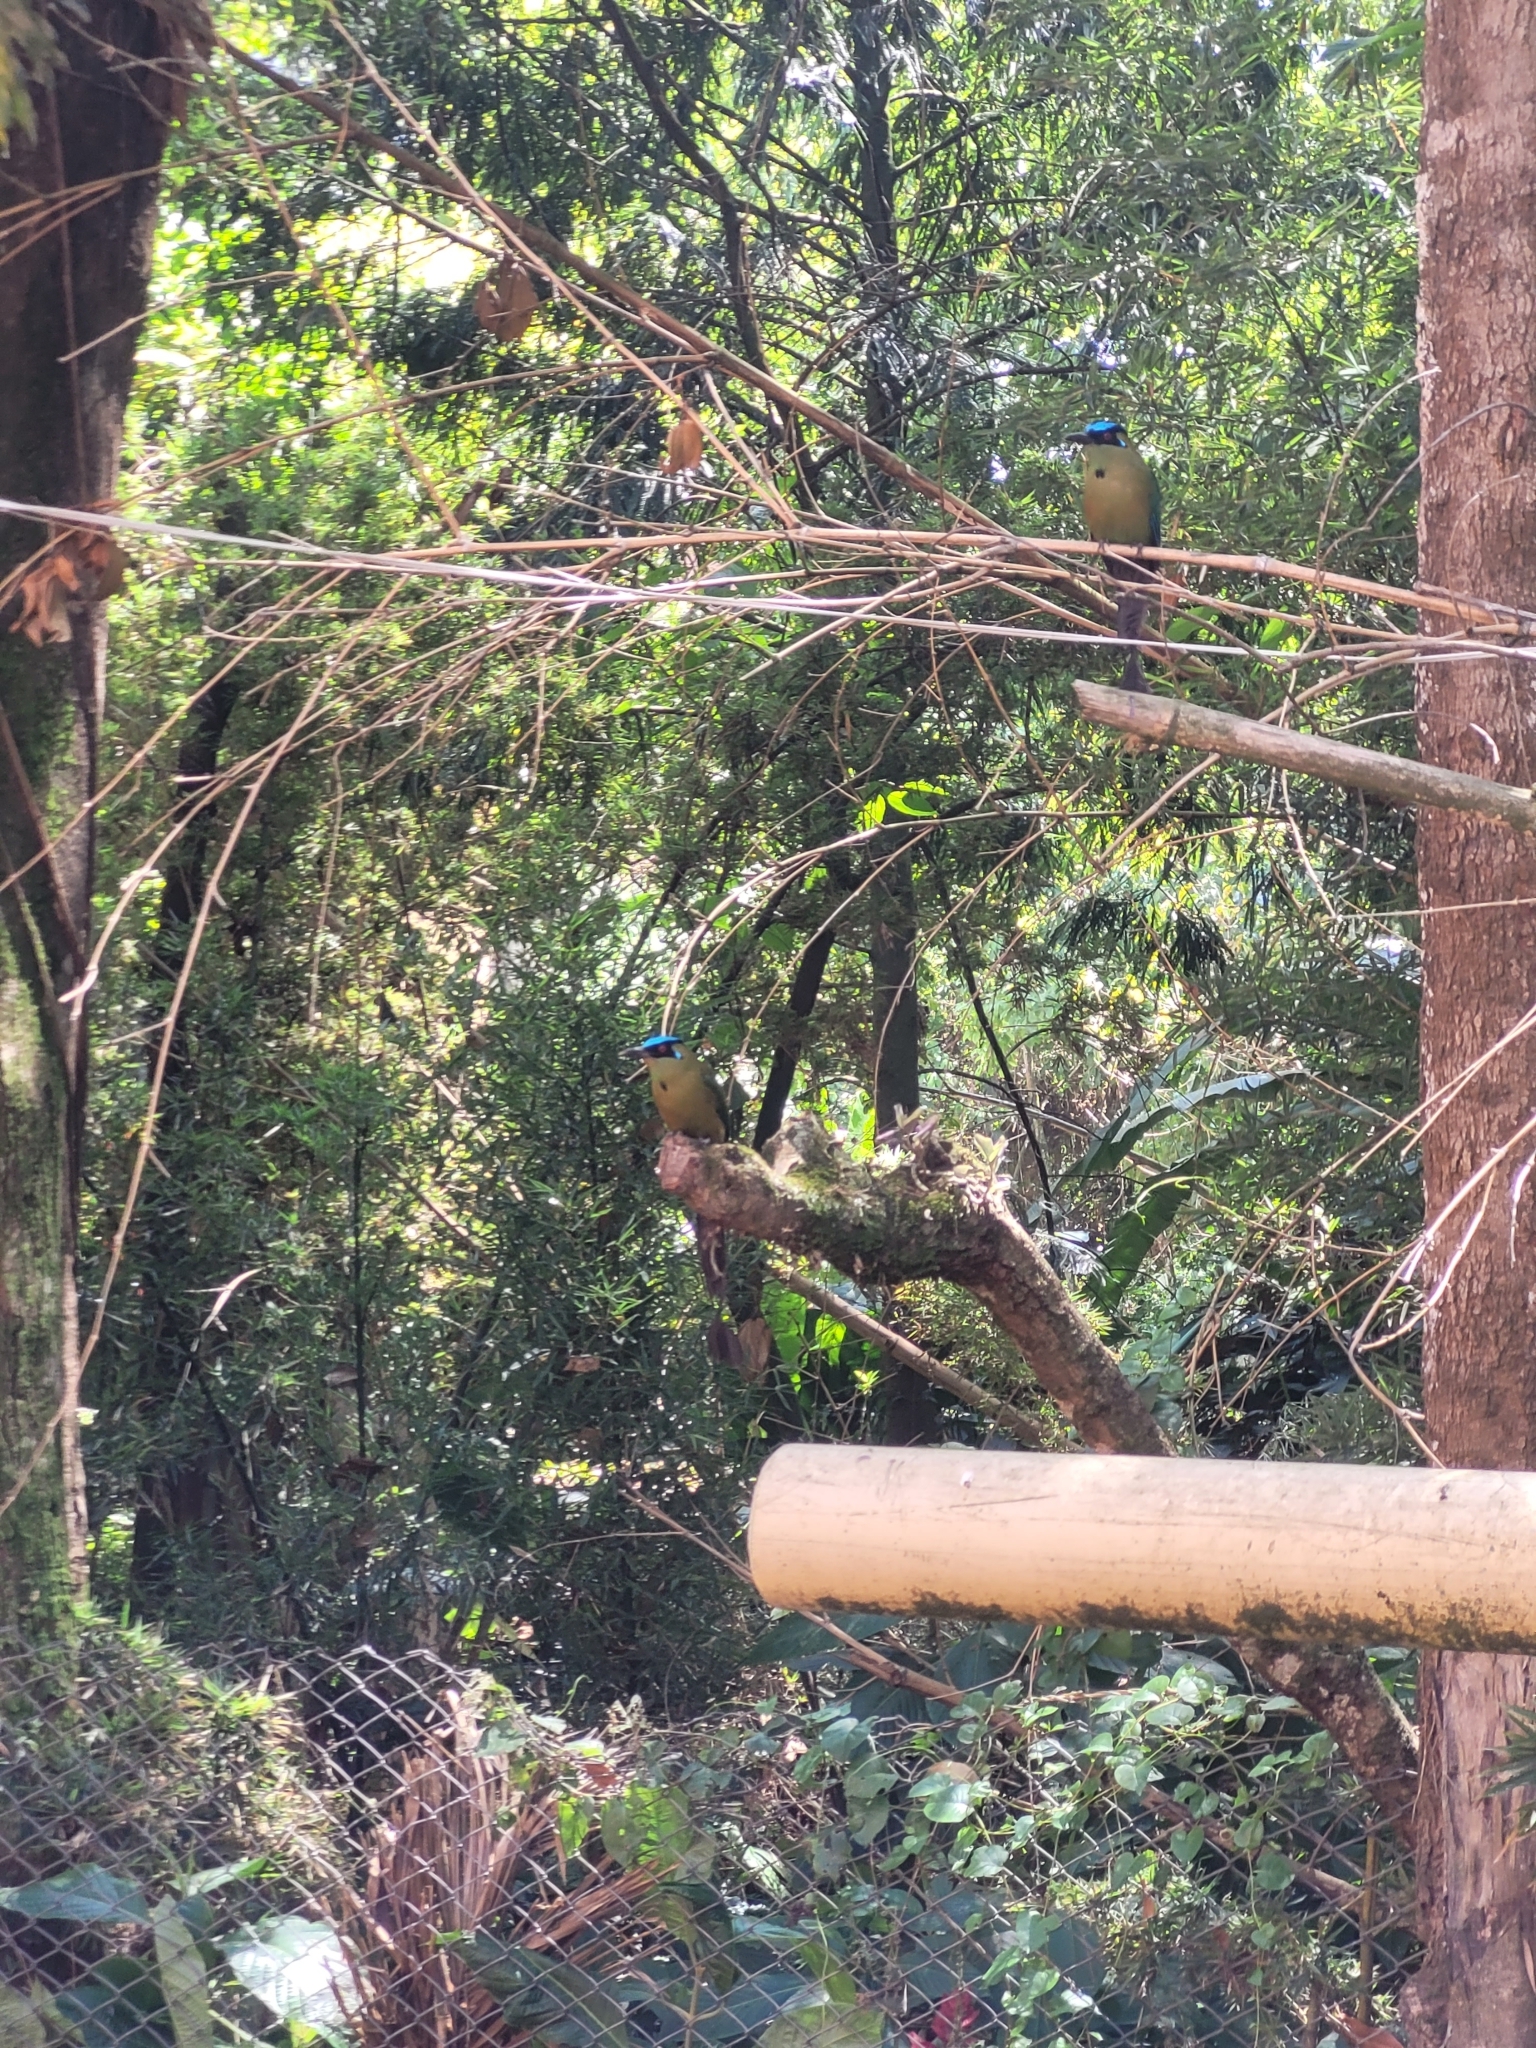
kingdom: Animalia
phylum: Chordata
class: Aves
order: Coraciiformes
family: Momotidae
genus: Momotus
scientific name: Momotus aequatorialis
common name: Andean motmot
